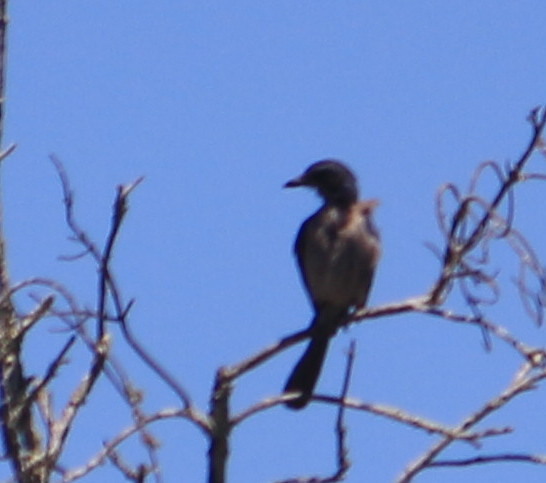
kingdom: Animalia
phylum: Chordata
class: Aves
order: Passeriformes
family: Corvidae
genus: Aphelocoma
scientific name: Aphelocoma californica
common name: California scrub-jay
